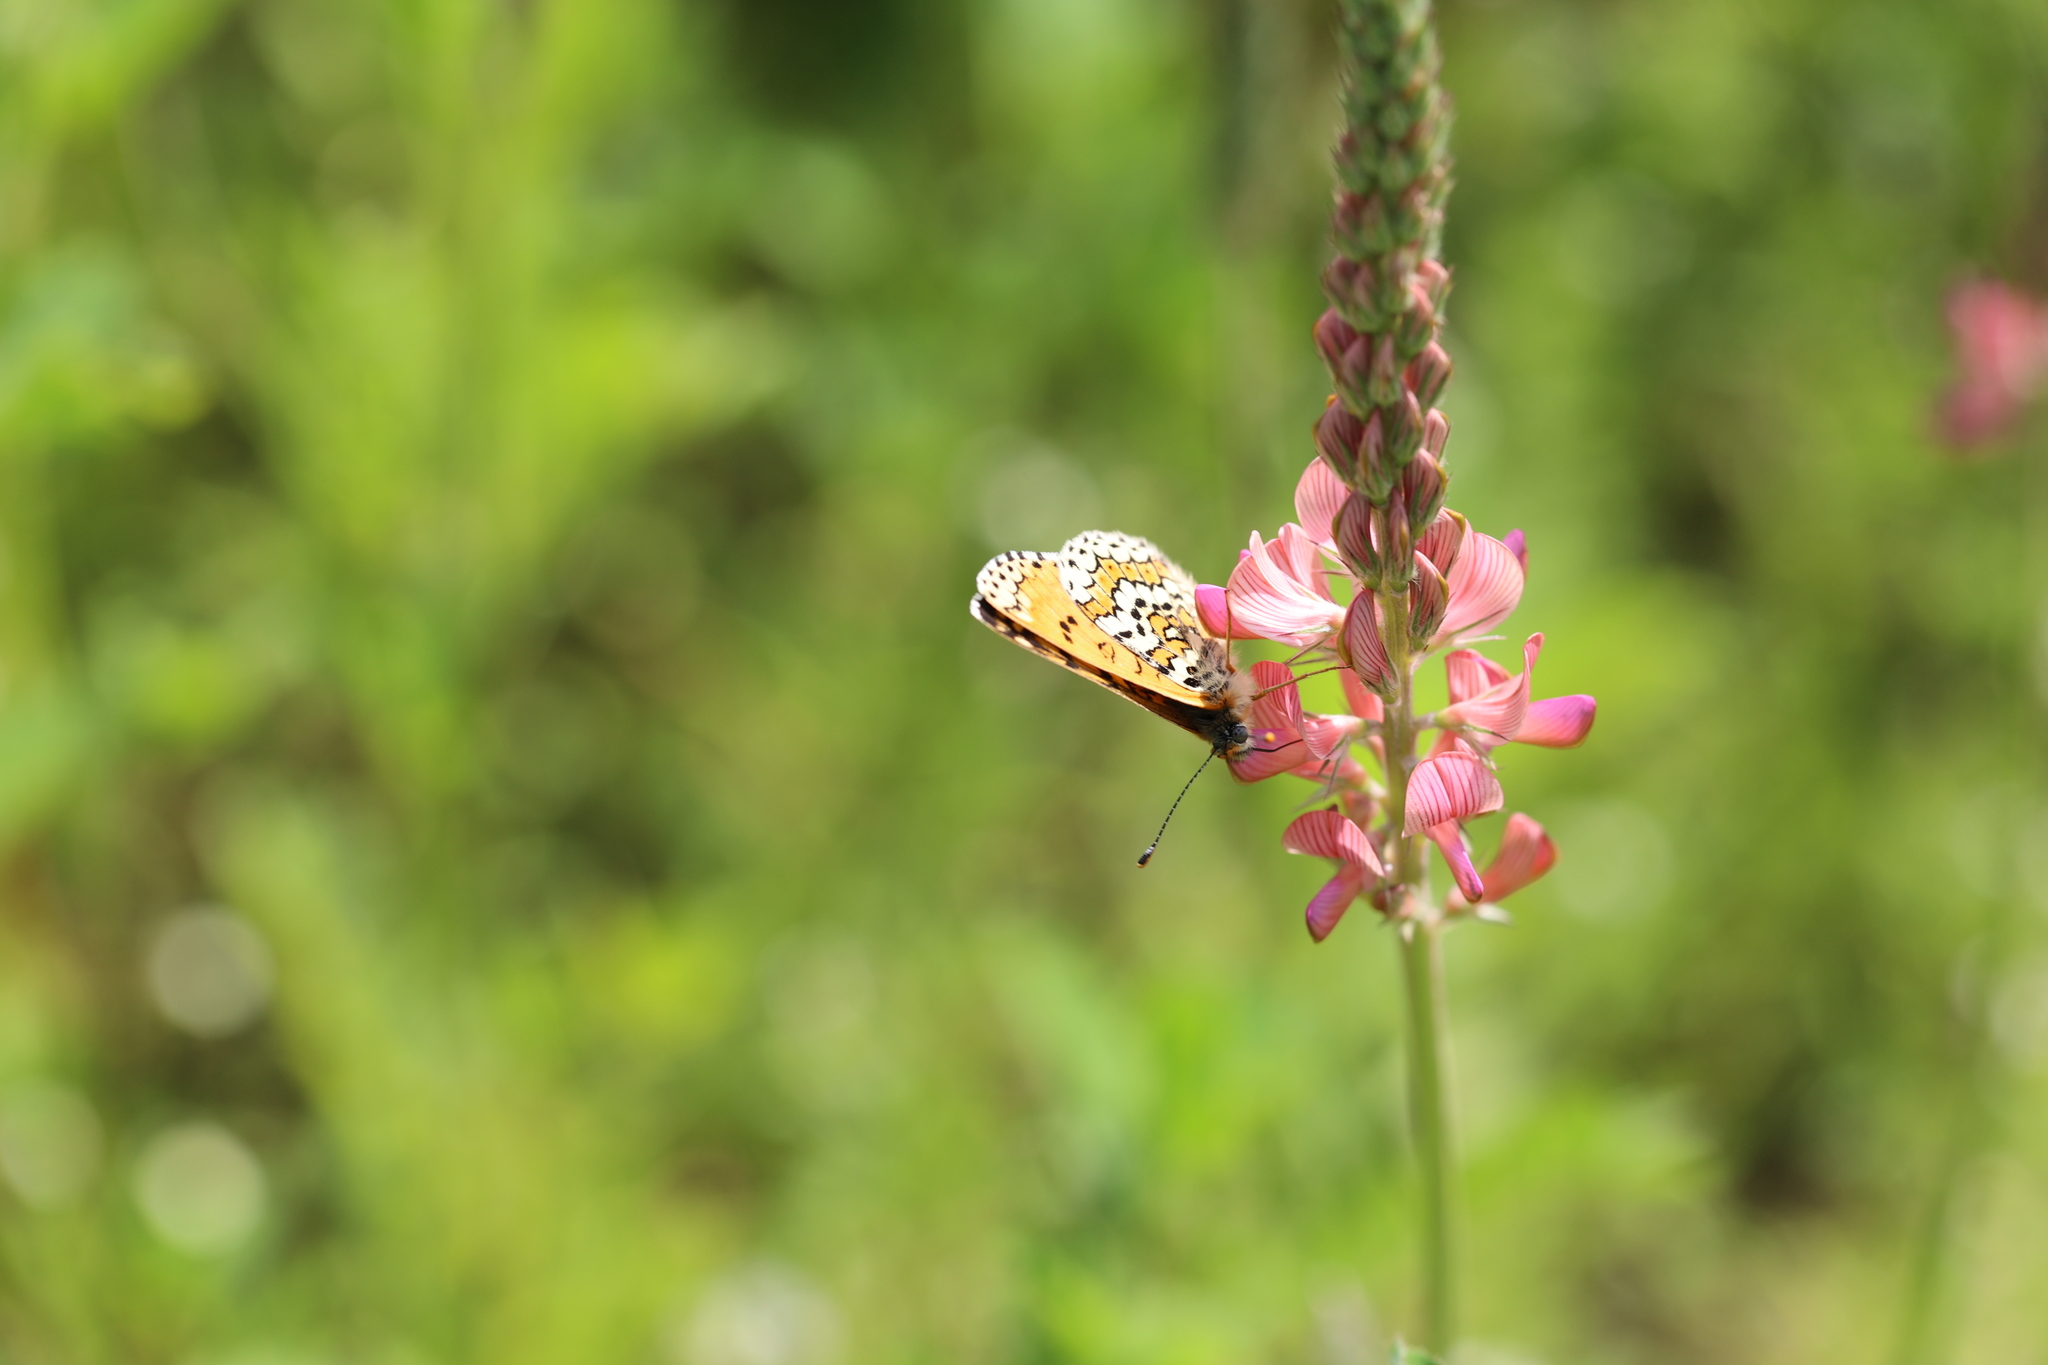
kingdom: Animalia
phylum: Arthropoda
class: Insecta
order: Lepidoptera
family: Nymphalidae
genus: Melitaea
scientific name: Melitaea cinxia
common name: Glanville fritillary
